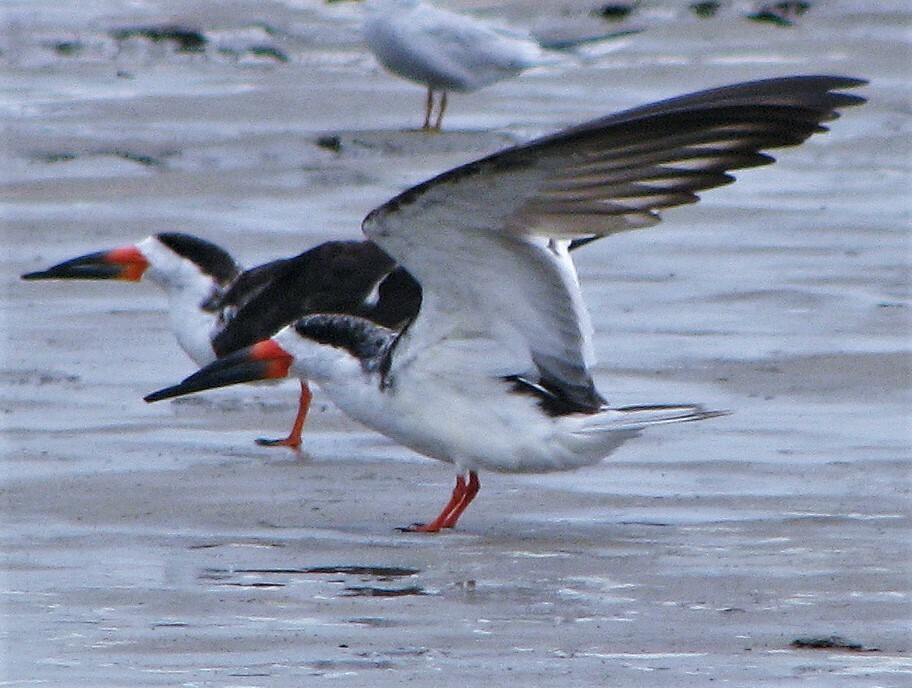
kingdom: Animalia
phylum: Chordata
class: Aves
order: Charadriiformes
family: Laridae
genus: Rynchops
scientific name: Rynchops niger
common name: Black skimmer
